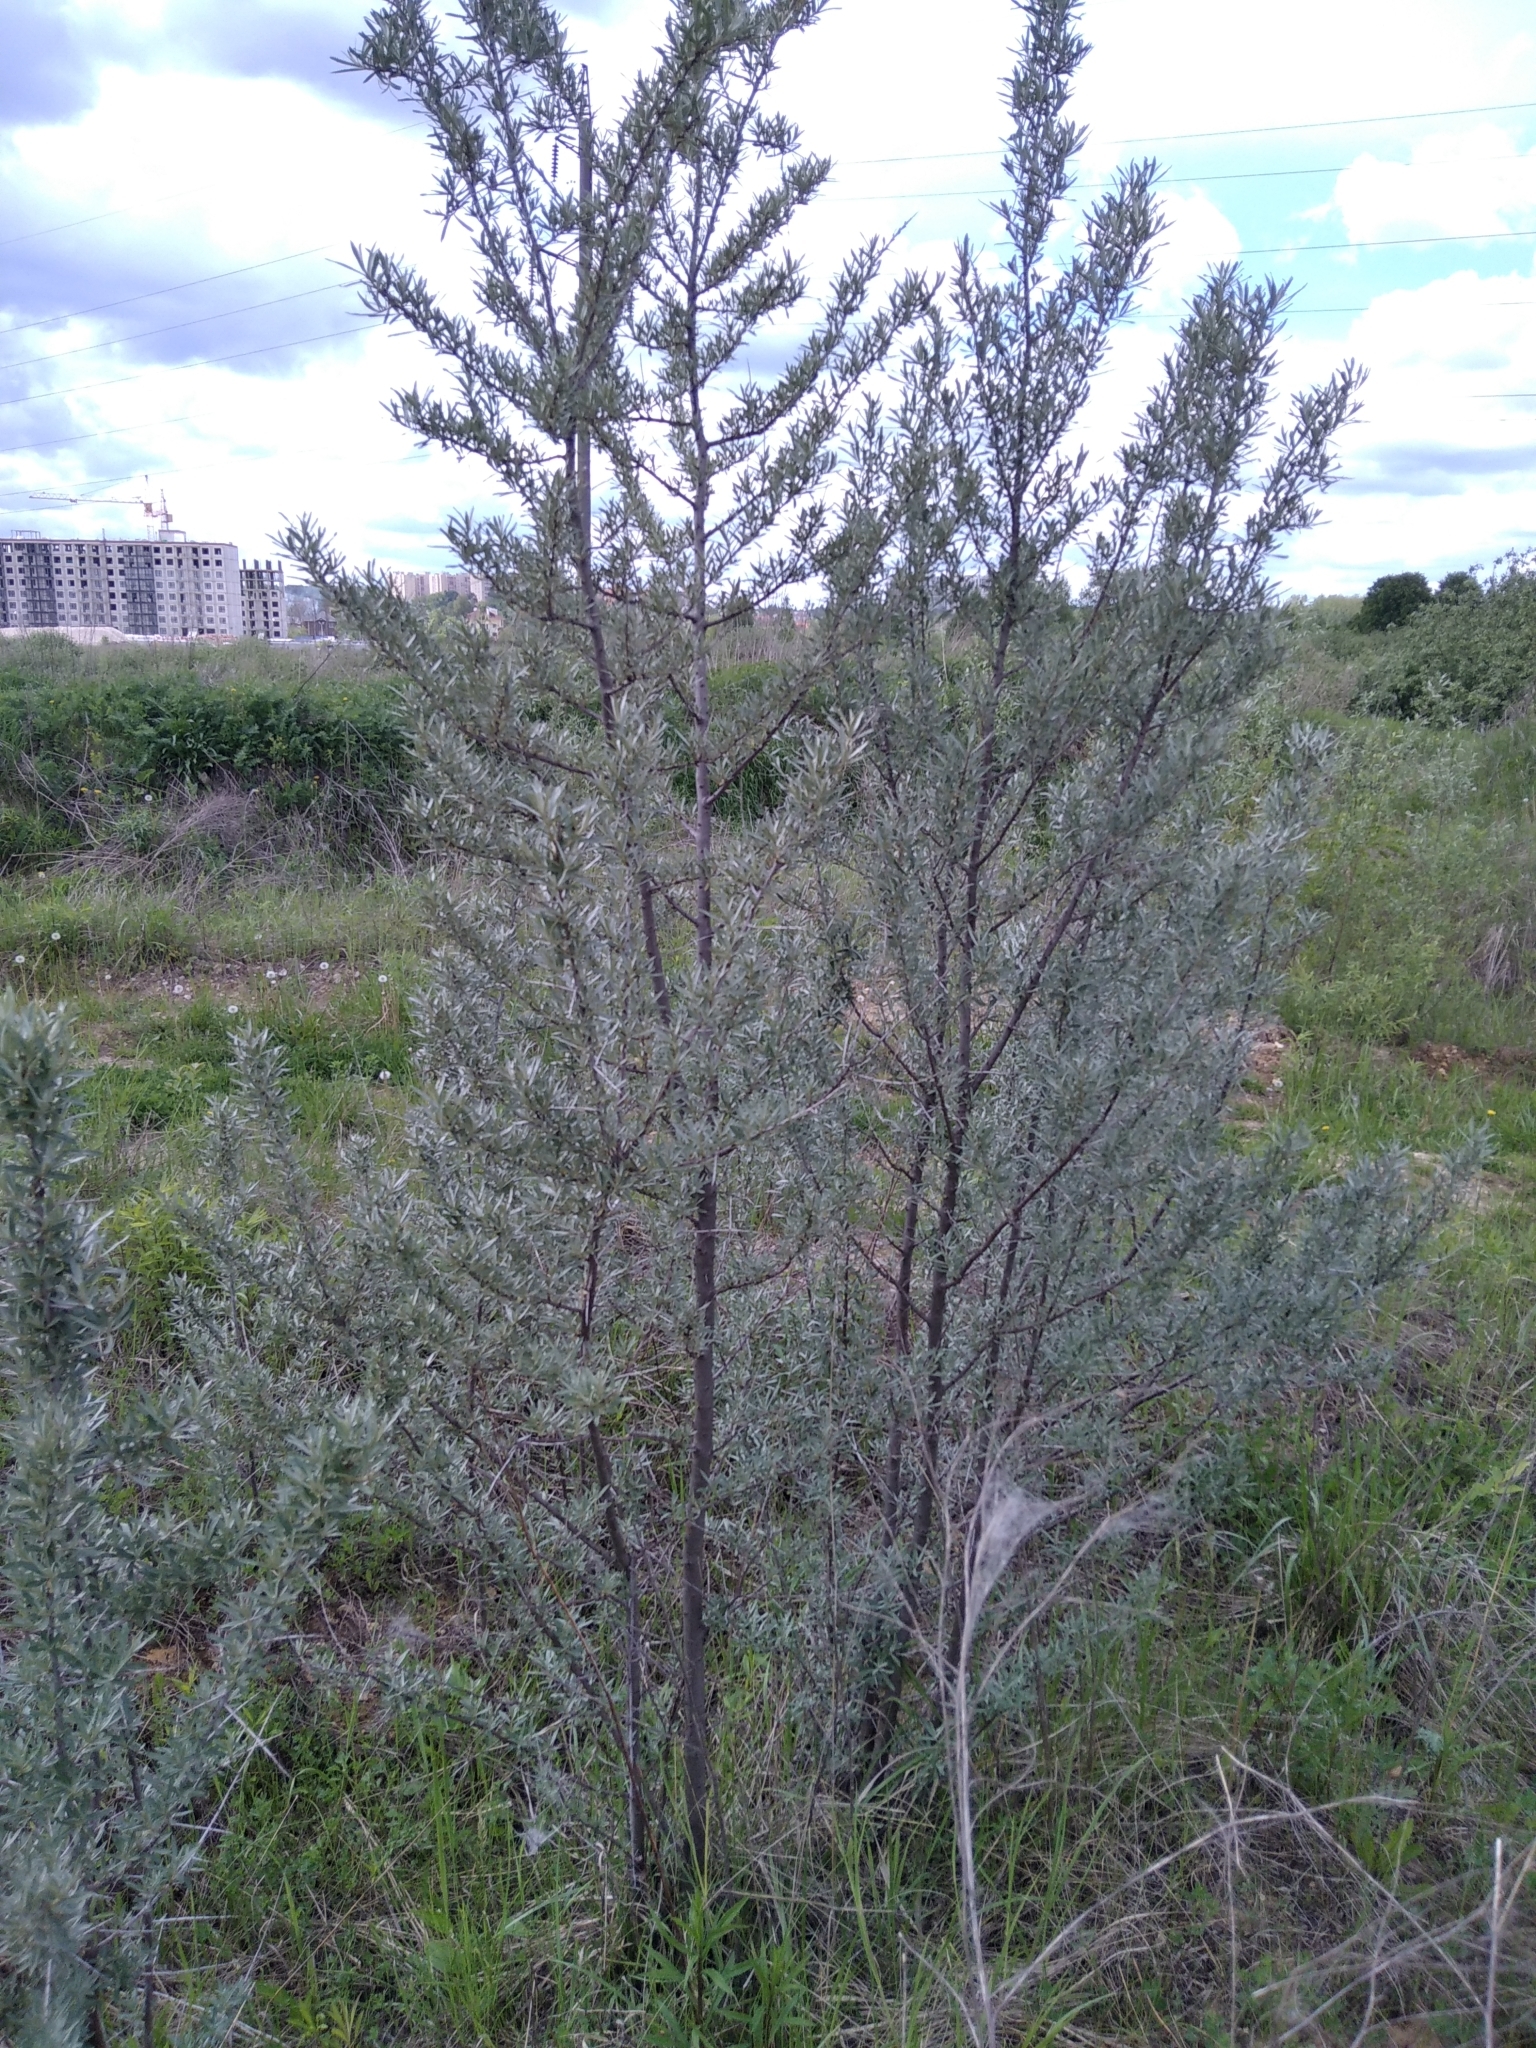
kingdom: Plantae
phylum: Tracheophyta
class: Magnoliopsida
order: Rosales
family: Elaeagnaceae
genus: Hippophae
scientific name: Hippophae rhamnoides
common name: Sea-buckthorn
